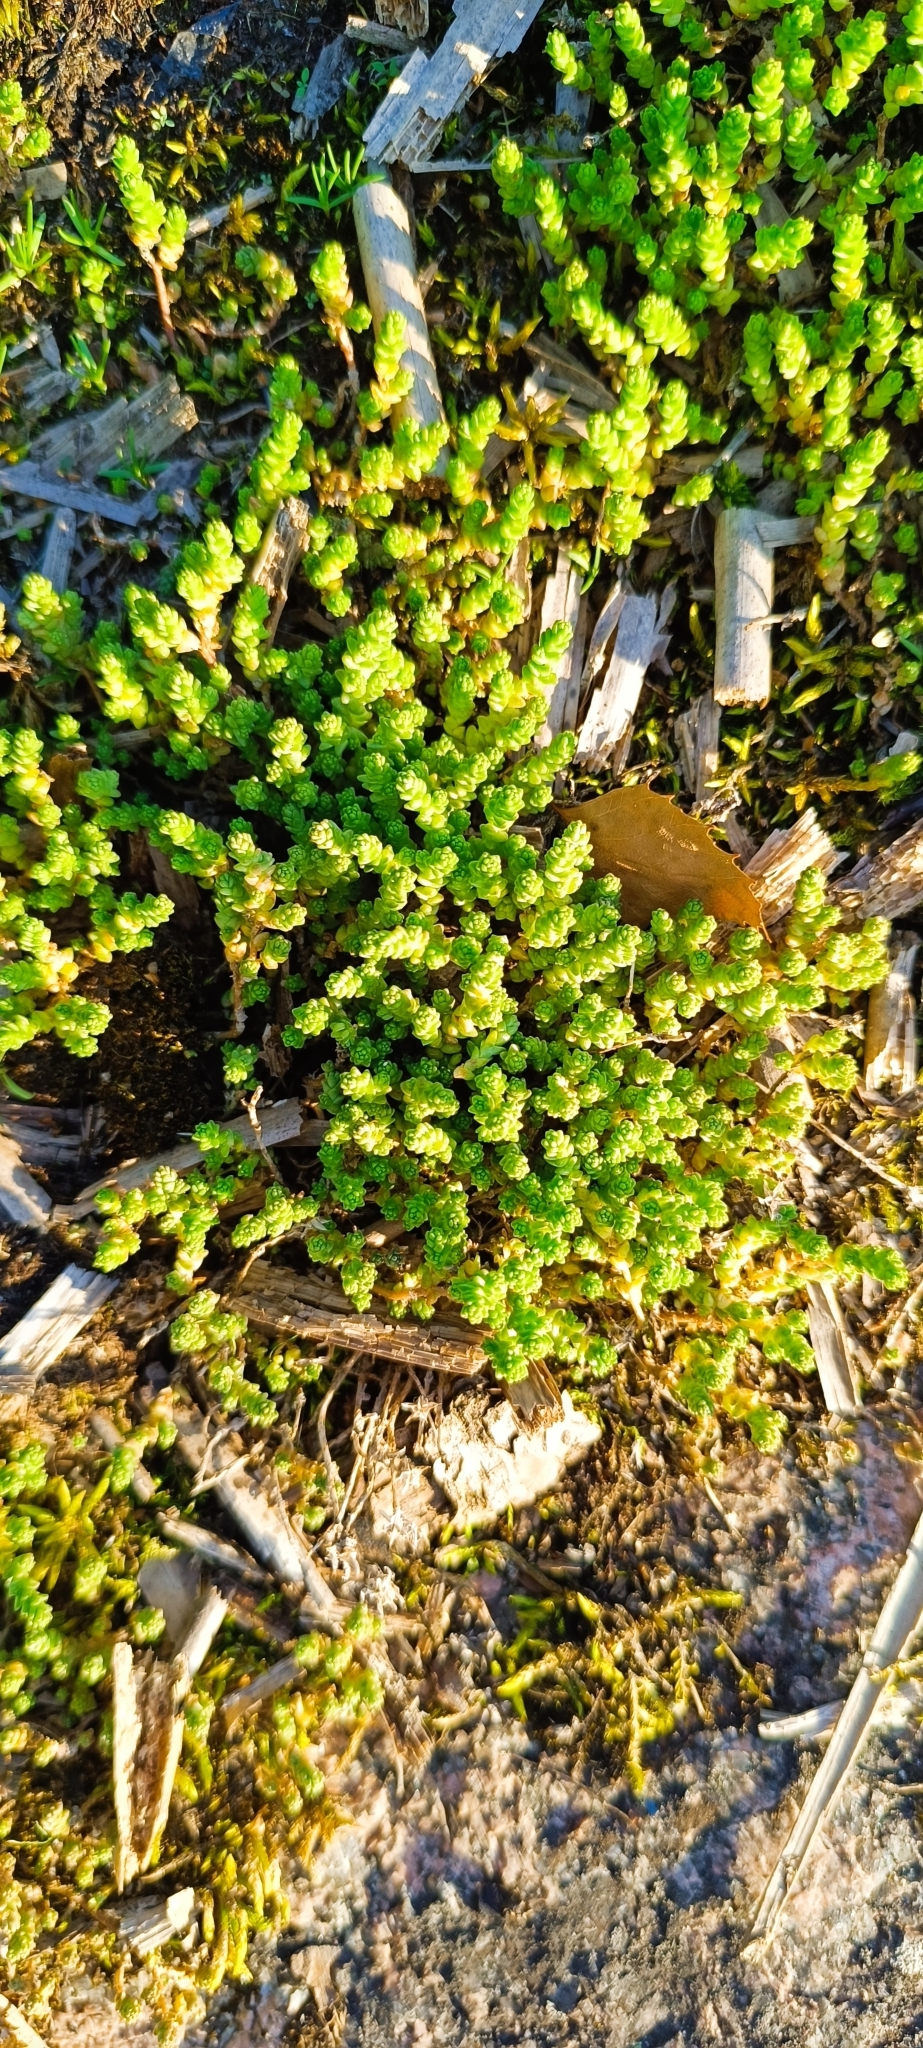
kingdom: Plantae
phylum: Tracheophyta
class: Magnoliopsida
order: Saxifragales
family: Crassulaceae
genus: Sedum
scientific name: Sedum acre
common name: Biting stonecrop
